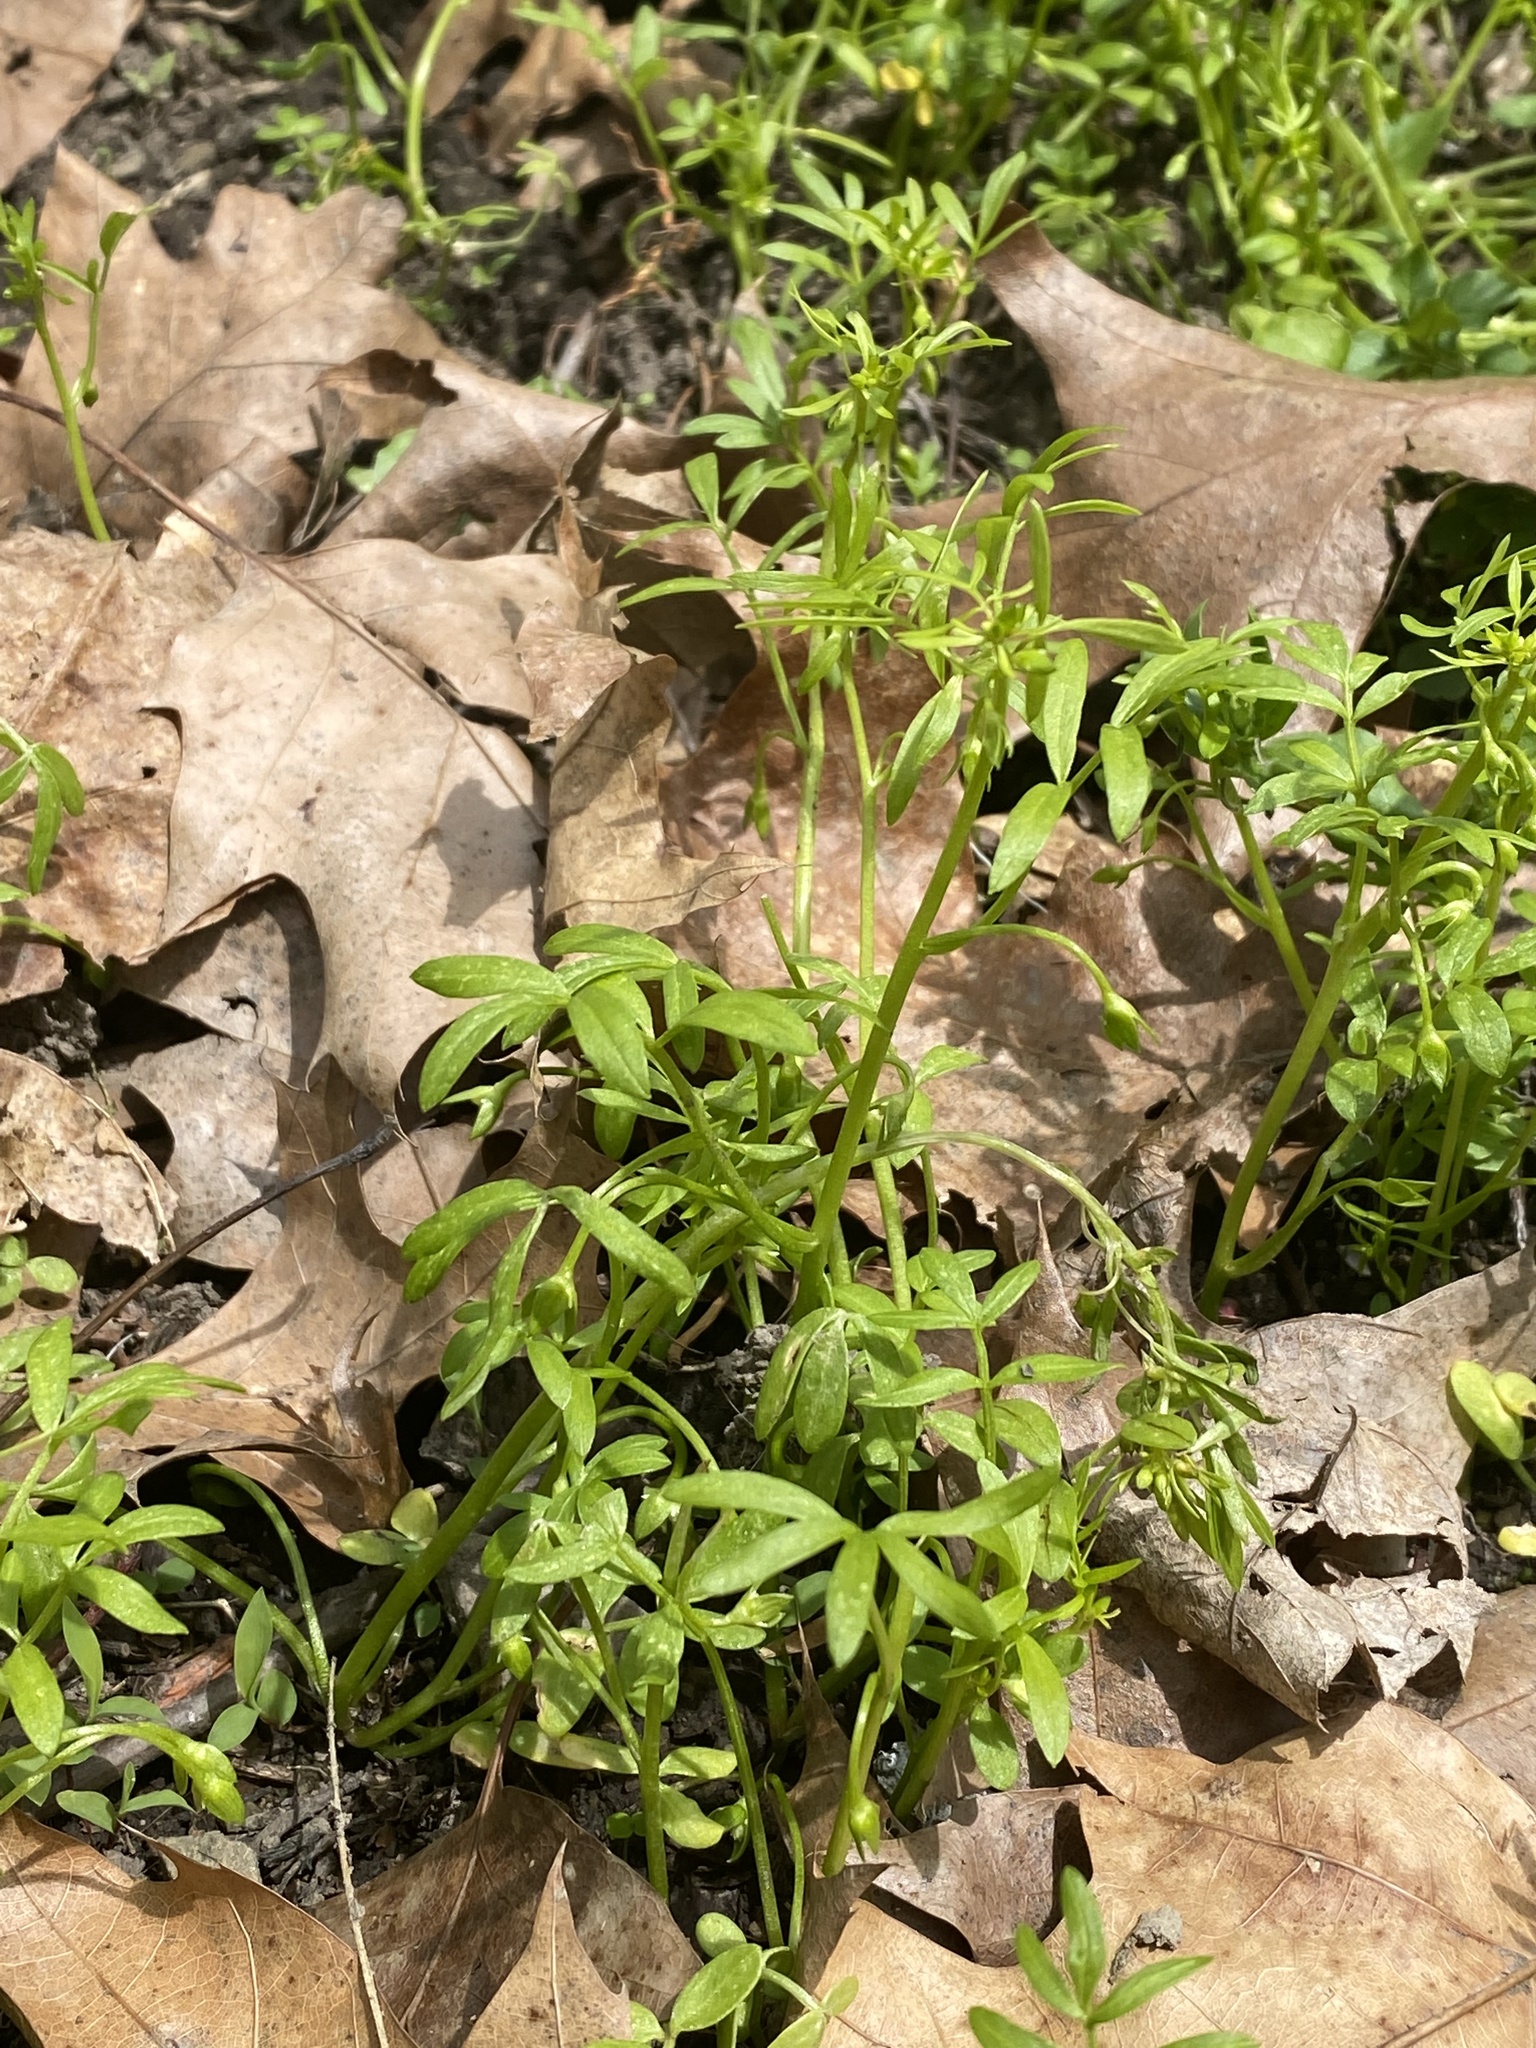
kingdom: Plantae
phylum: Tracheophyta
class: Magnoliopsida
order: Brassicales
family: Limnanthaceae
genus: Floerkea
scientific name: Floerkea proserpinacoides
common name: False mermaid
